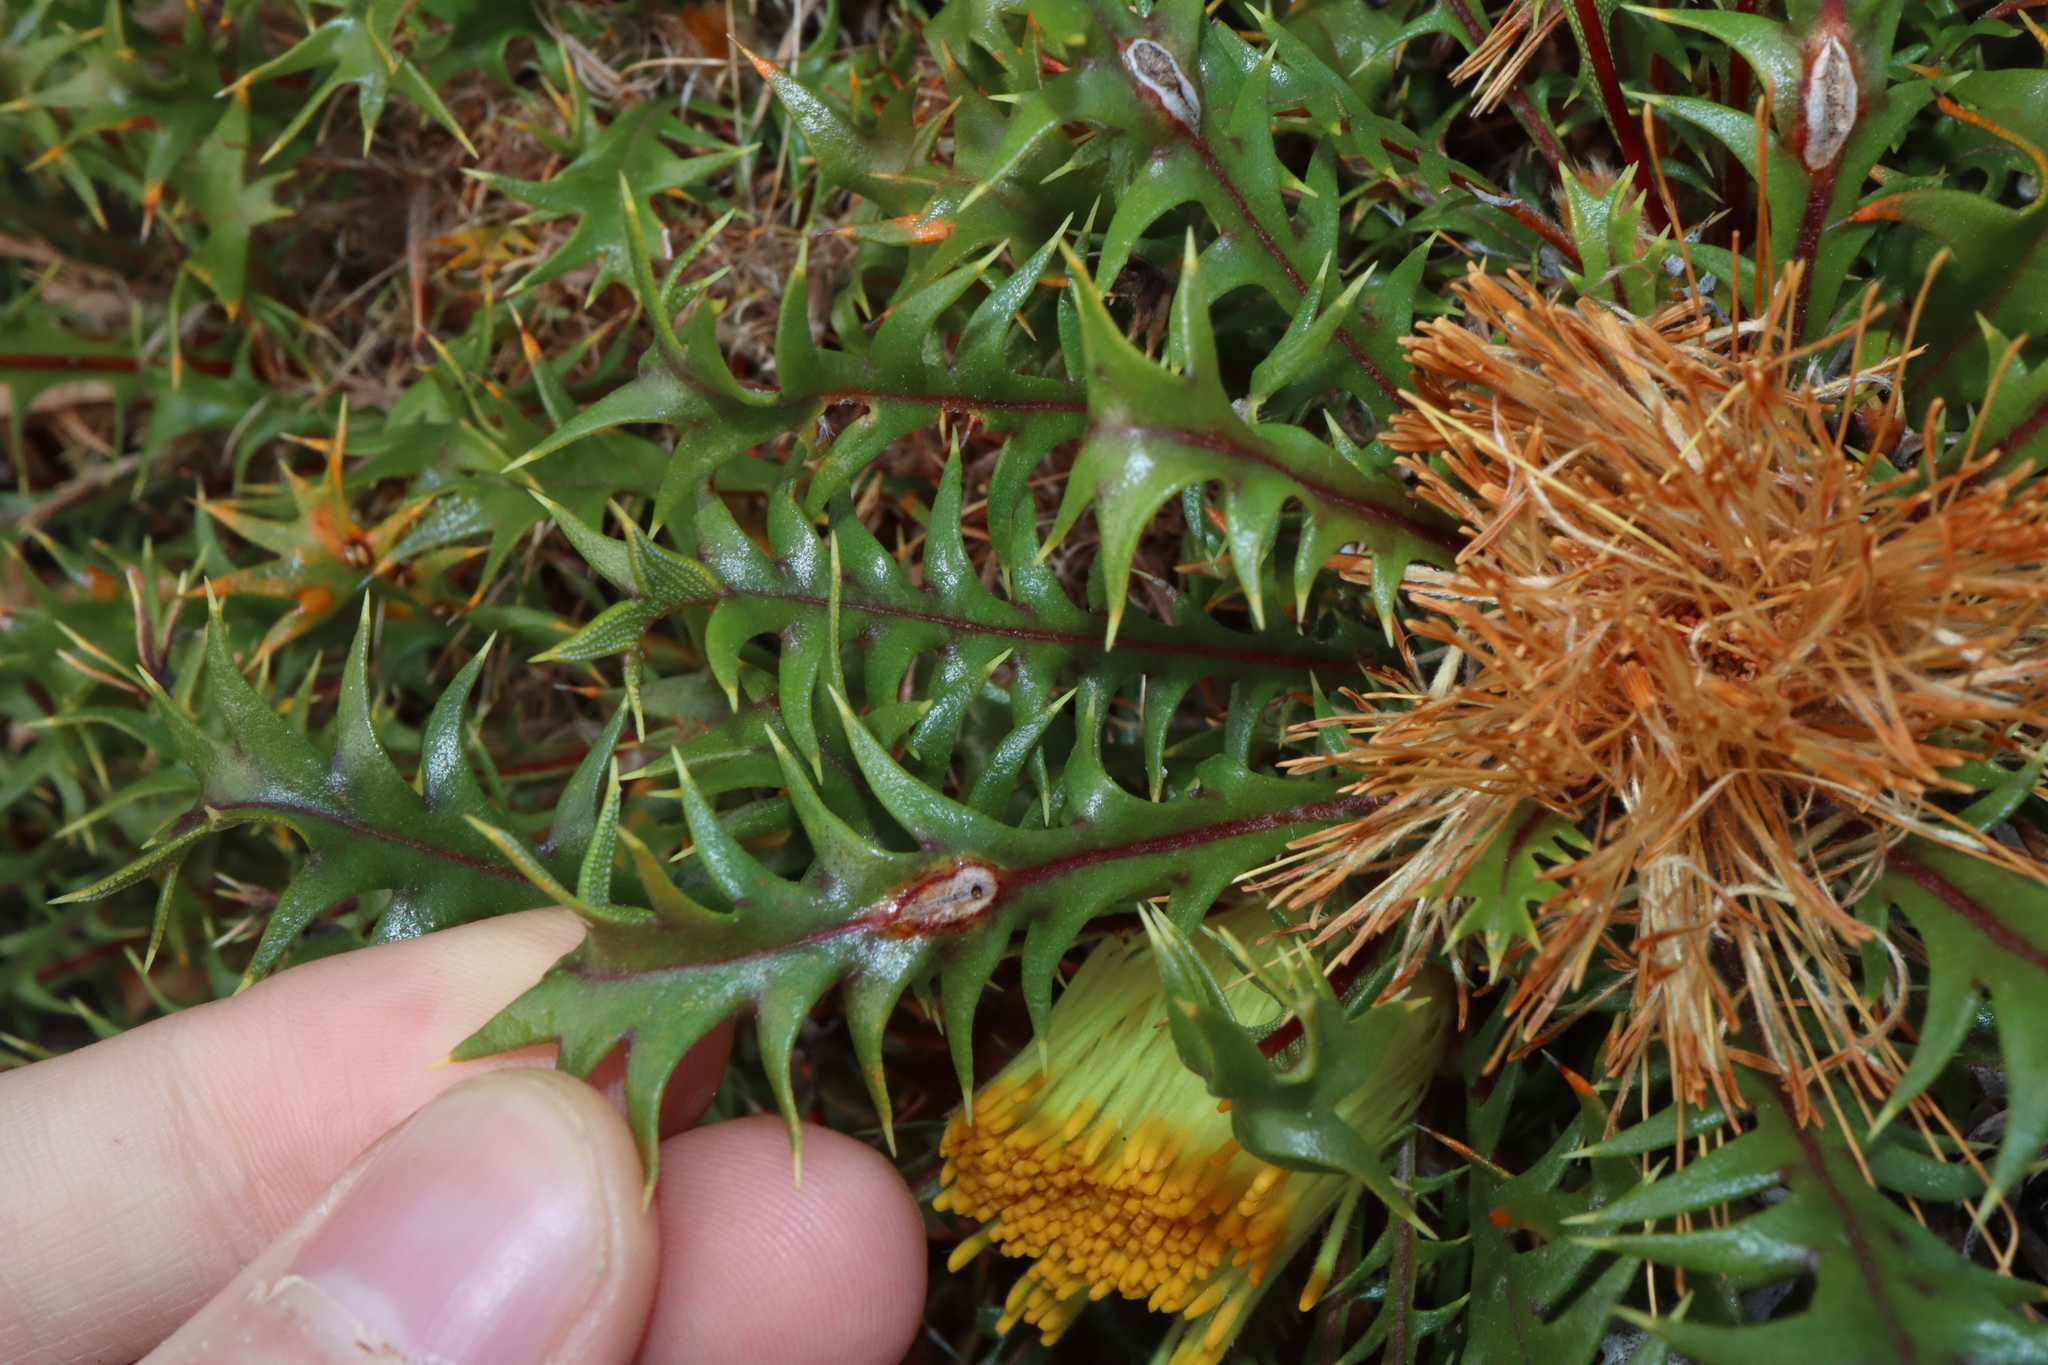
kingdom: Plantae
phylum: Tracheophyta
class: Magnoliopsida
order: Proteales
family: Proteaceae
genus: Banksia
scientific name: Banksia falcata
